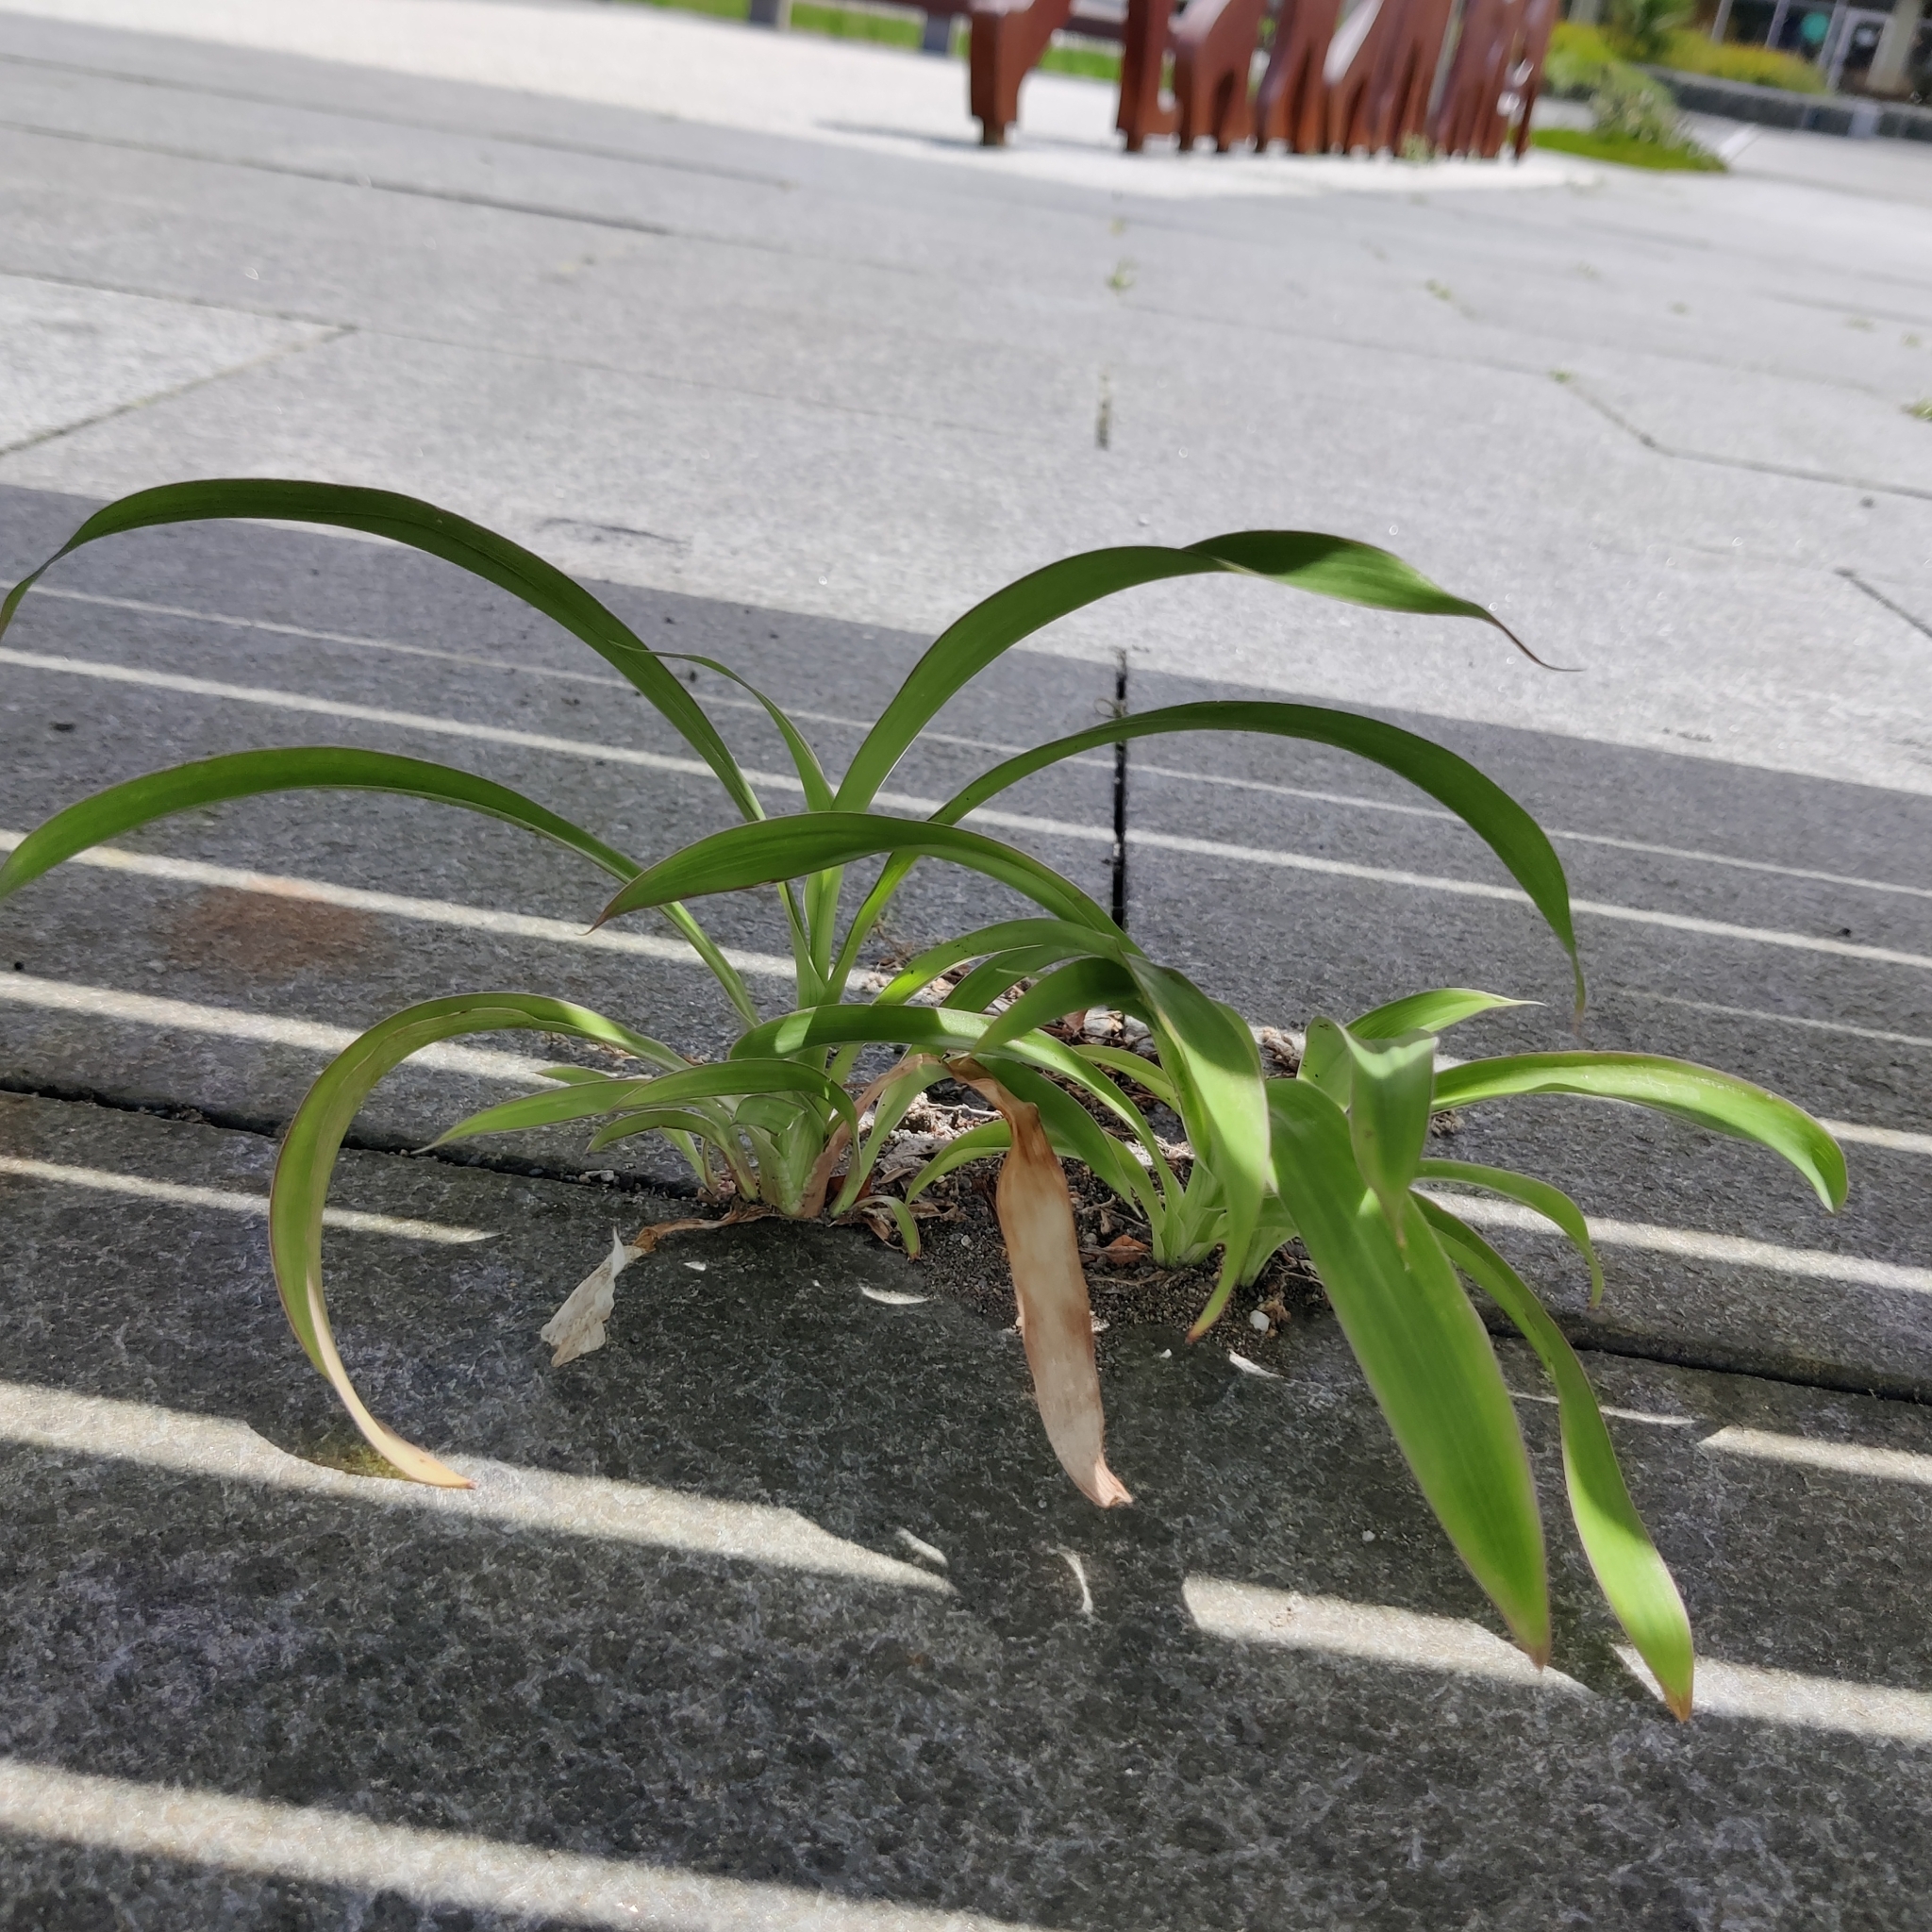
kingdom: Plantae
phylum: Tracheophyta
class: Liliopsida
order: Asparagales
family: Asparagaceae
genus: Arthropodium
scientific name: Arthropodium cirratum
